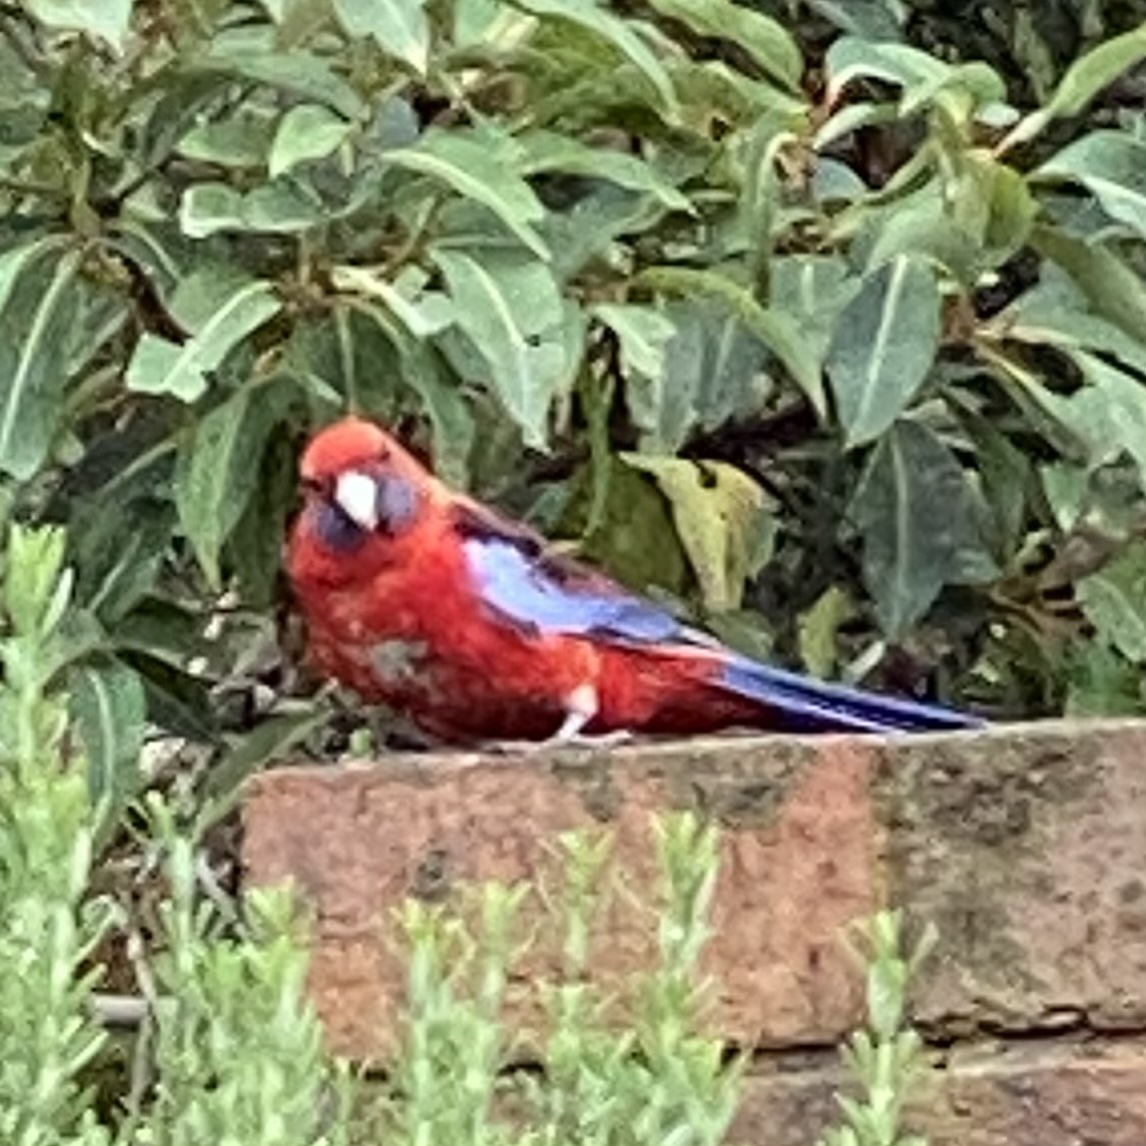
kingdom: Animalia
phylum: Chordata
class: Aves
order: Psittaciformes
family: Psittacidae
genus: Platycercus
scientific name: Platycercus elegans
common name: Crimson rosella
